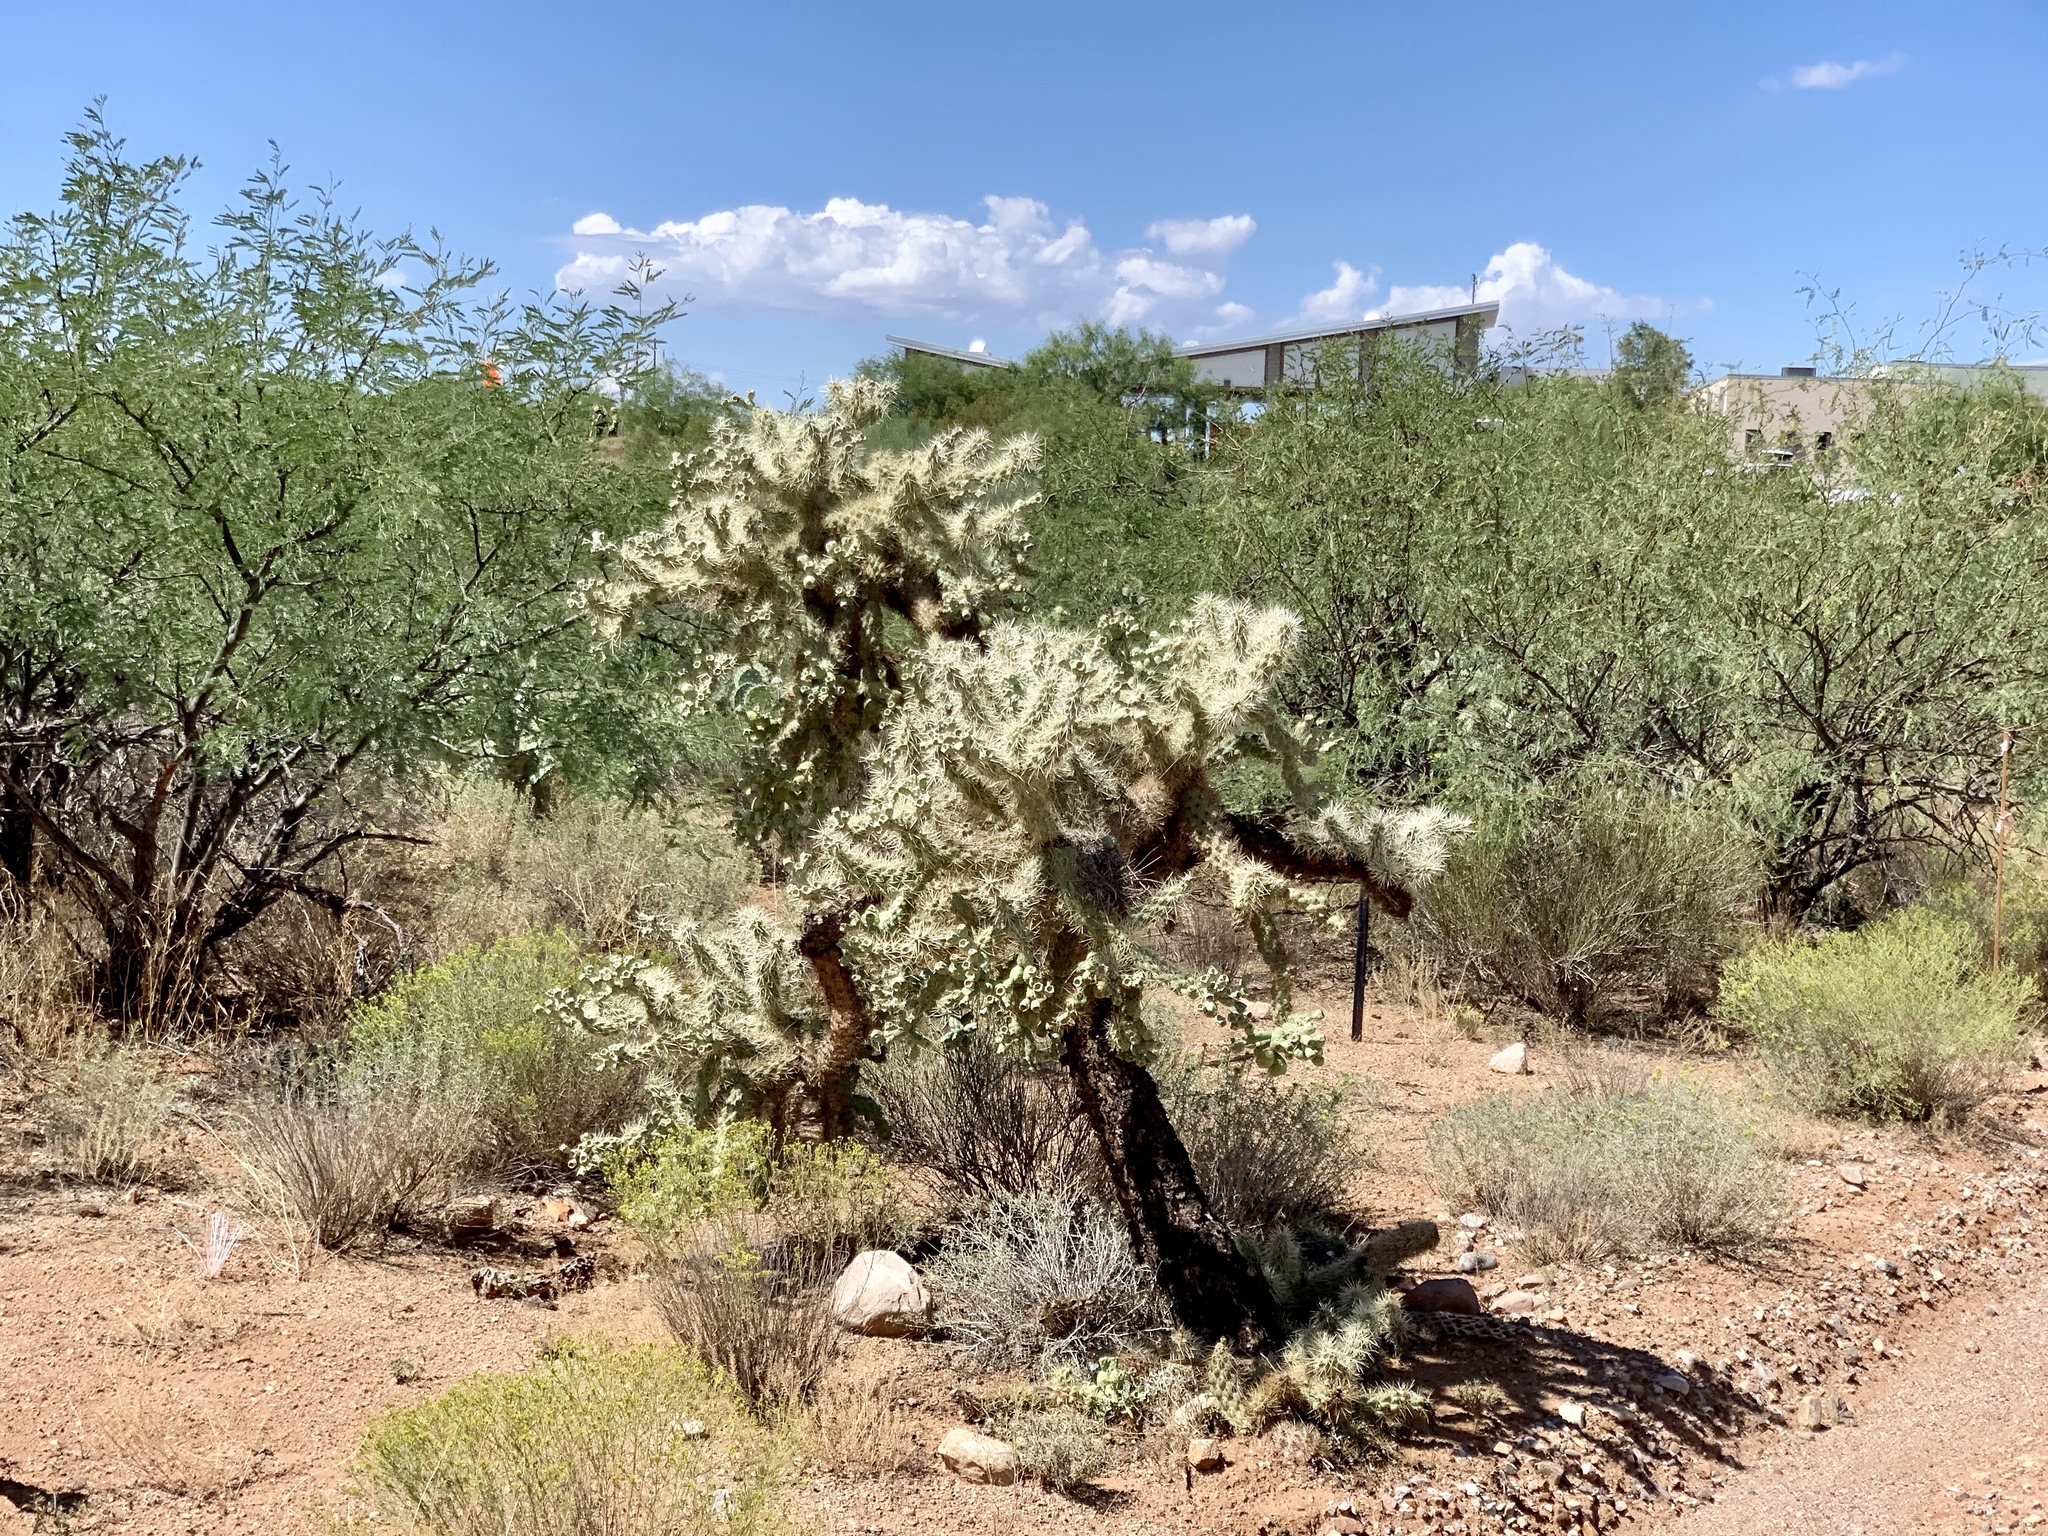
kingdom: Plantae
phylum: Tracheophyta
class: Magnoliopsida
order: Caryophyllales
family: Cactaceae
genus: Cylindropuntia
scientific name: Cylindropuntia fulgida
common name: Jumping cholla
